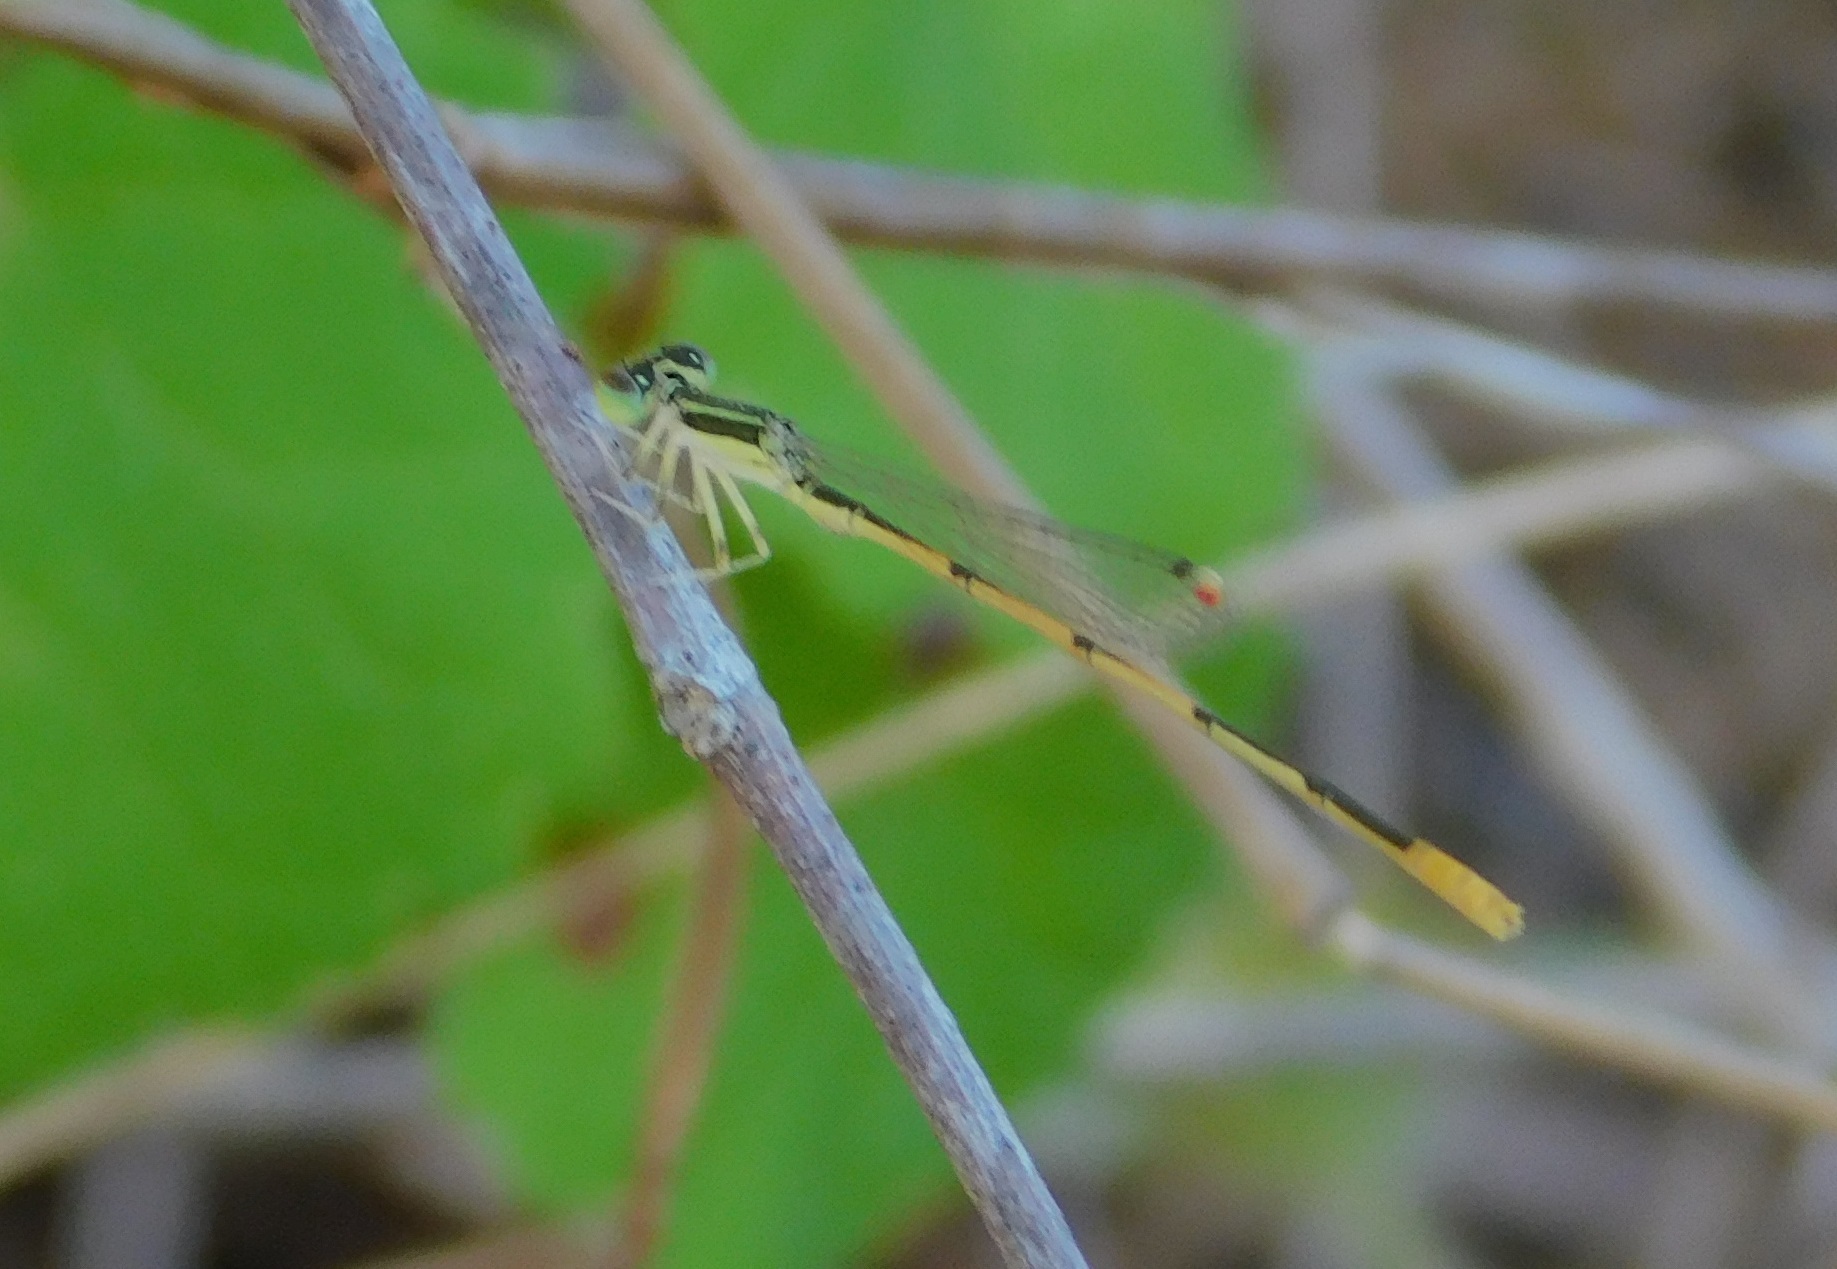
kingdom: Animalia
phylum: Arthropoda
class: Insecta
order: Odonata
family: Coenagrionidae
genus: Ischnura
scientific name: Ischnura hastata
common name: Citrine forktail
